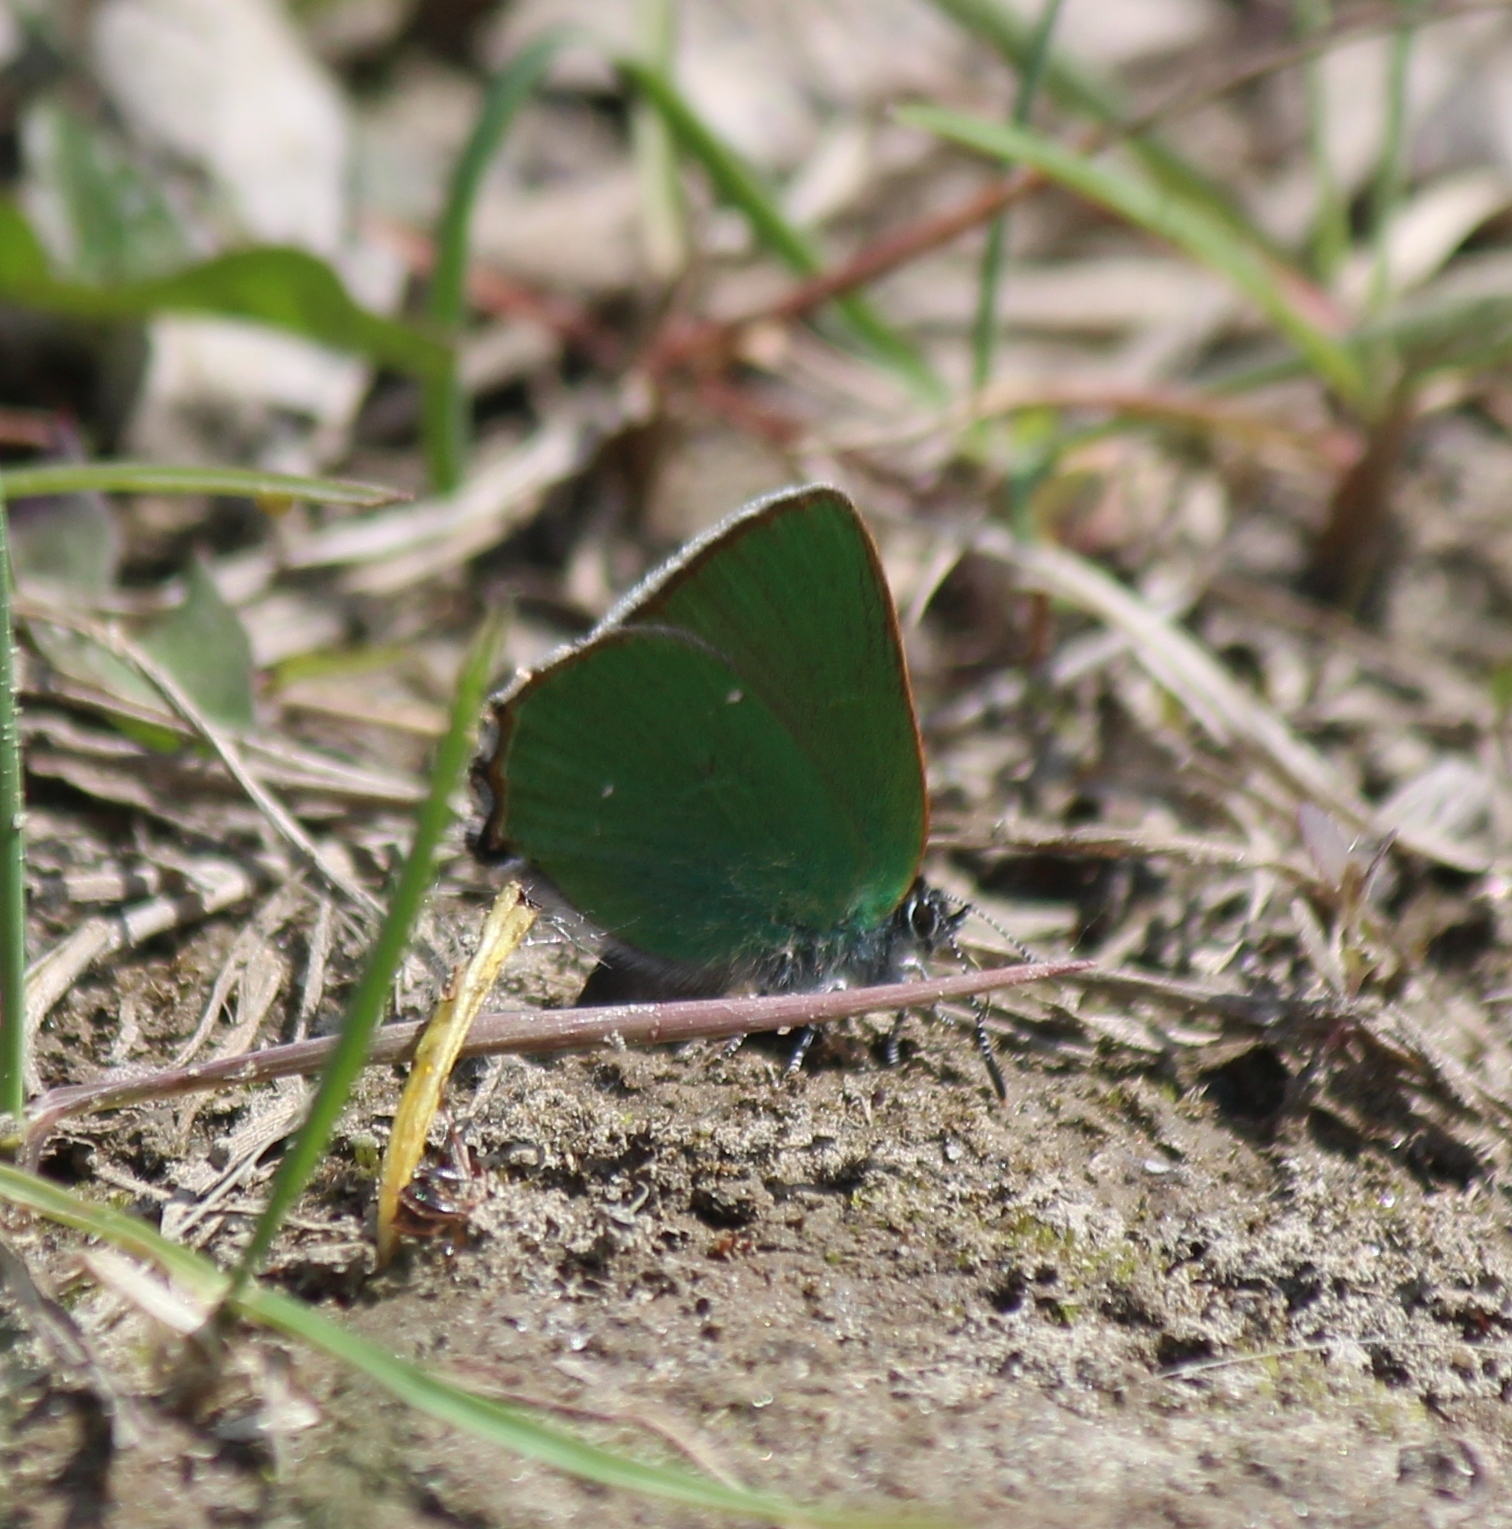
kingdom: Animalia
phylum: Arthropoda
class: Insecta
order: Lepidoptera
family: Lycaenidae
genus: Callophrys
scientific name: Callophrys rubi
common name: Green hairstreak
